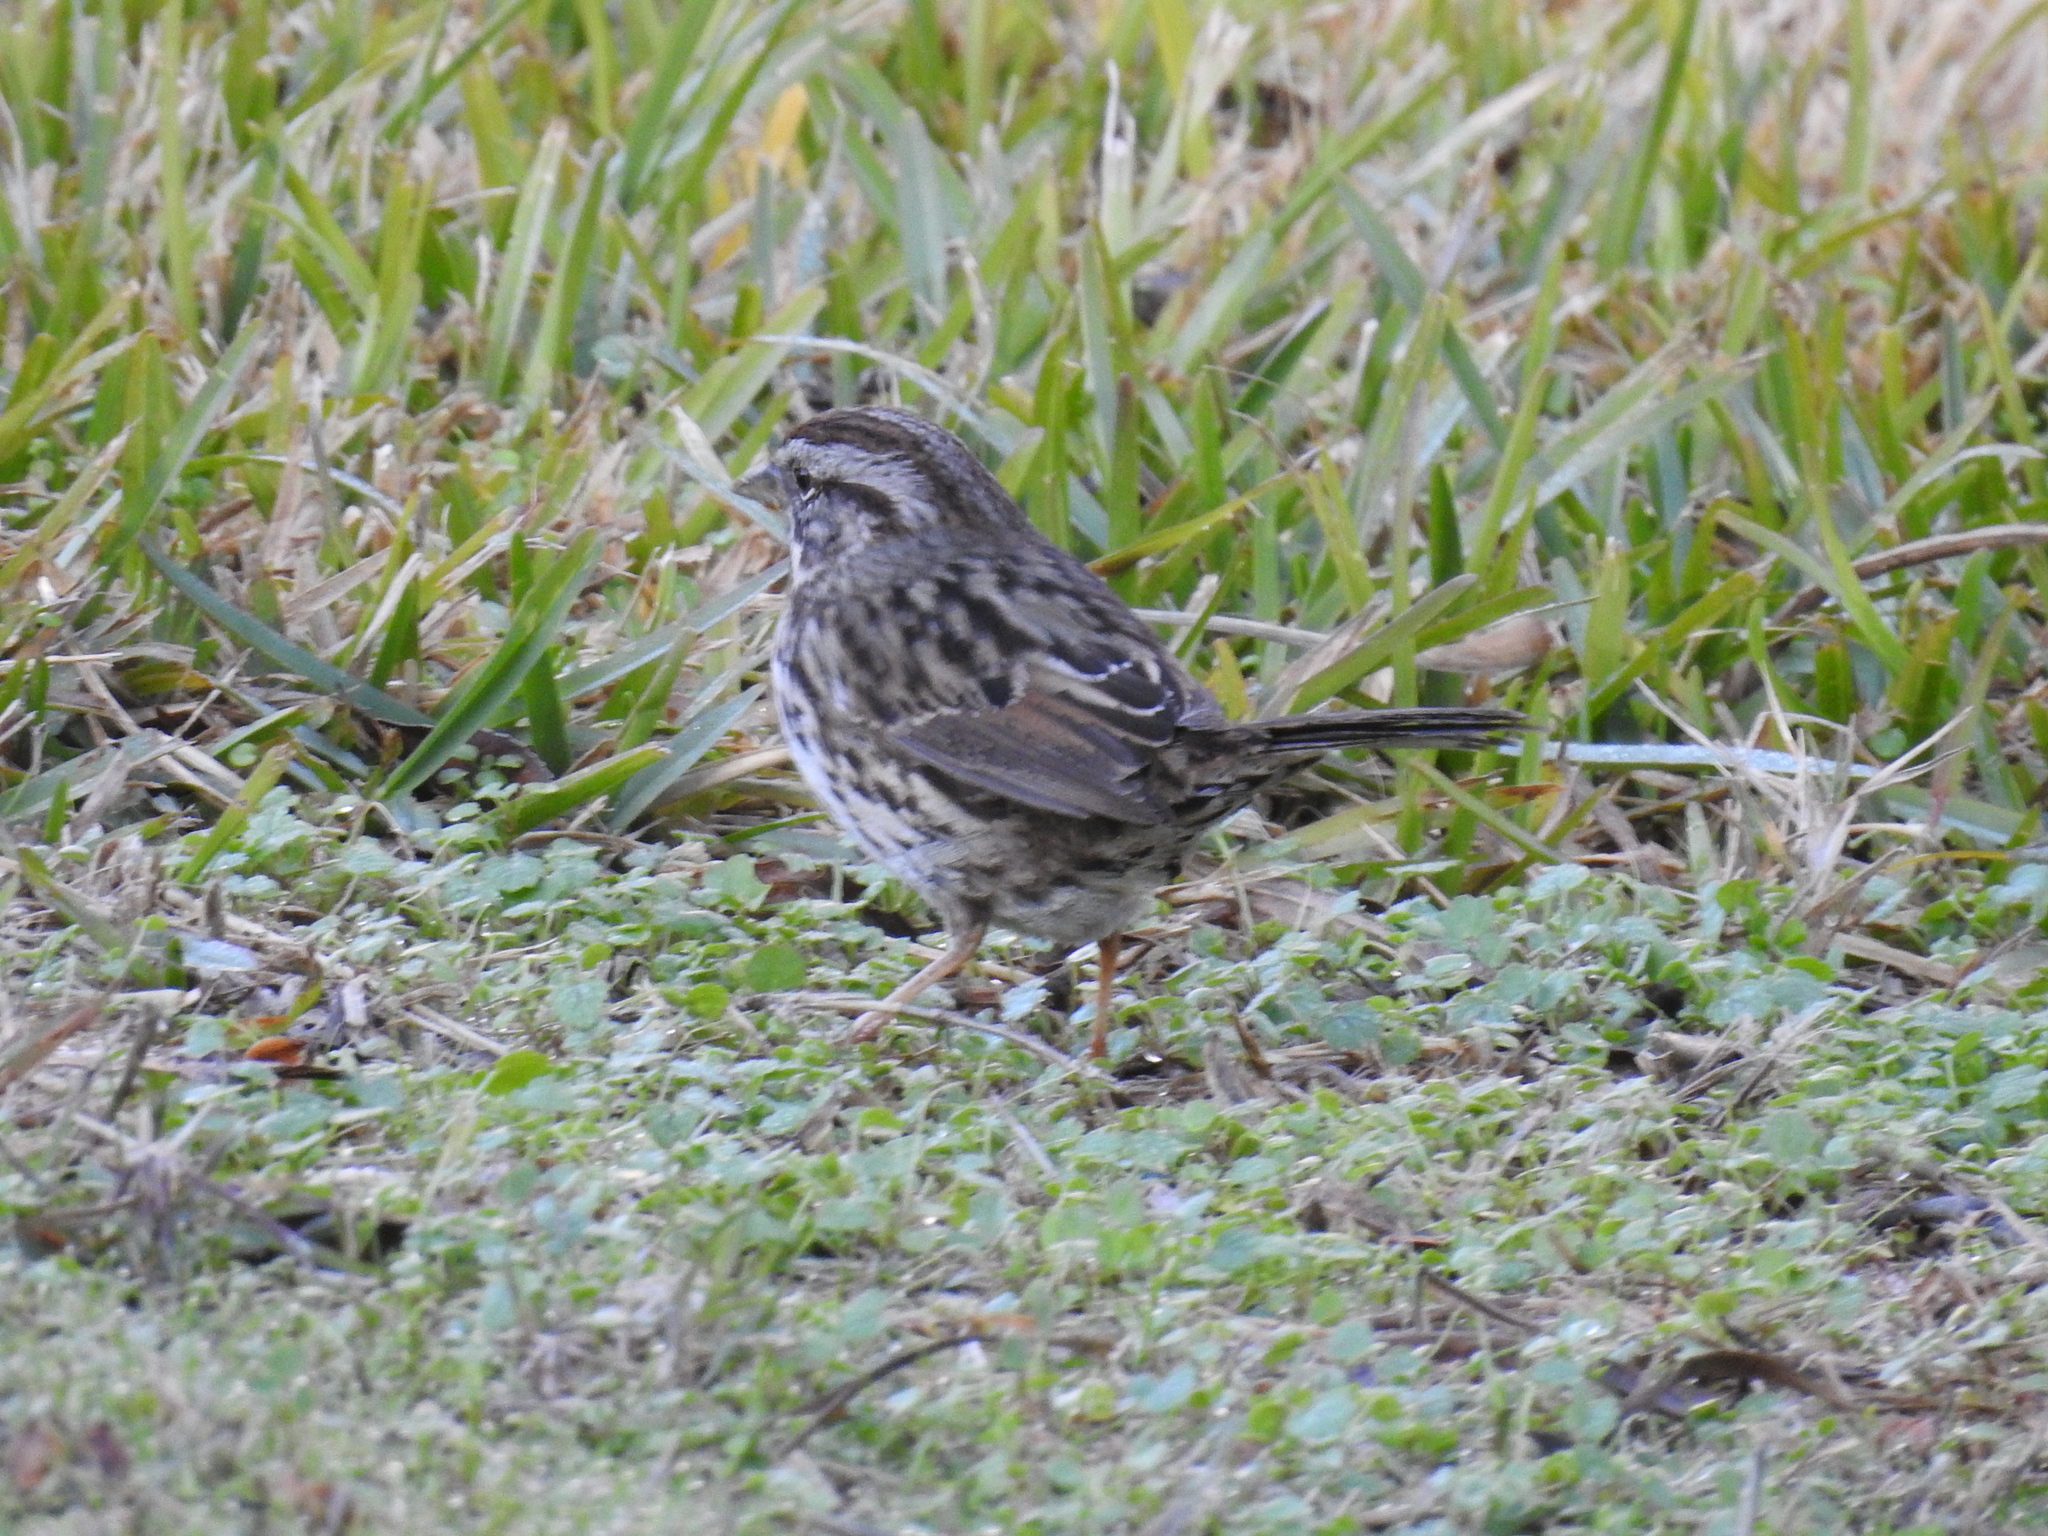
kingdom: Animalia
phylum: Chordata
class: Aves
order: Passeriformes
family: Passerellidae
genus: Melospiza
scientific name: Melospiza melodia
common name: Song sparrow
